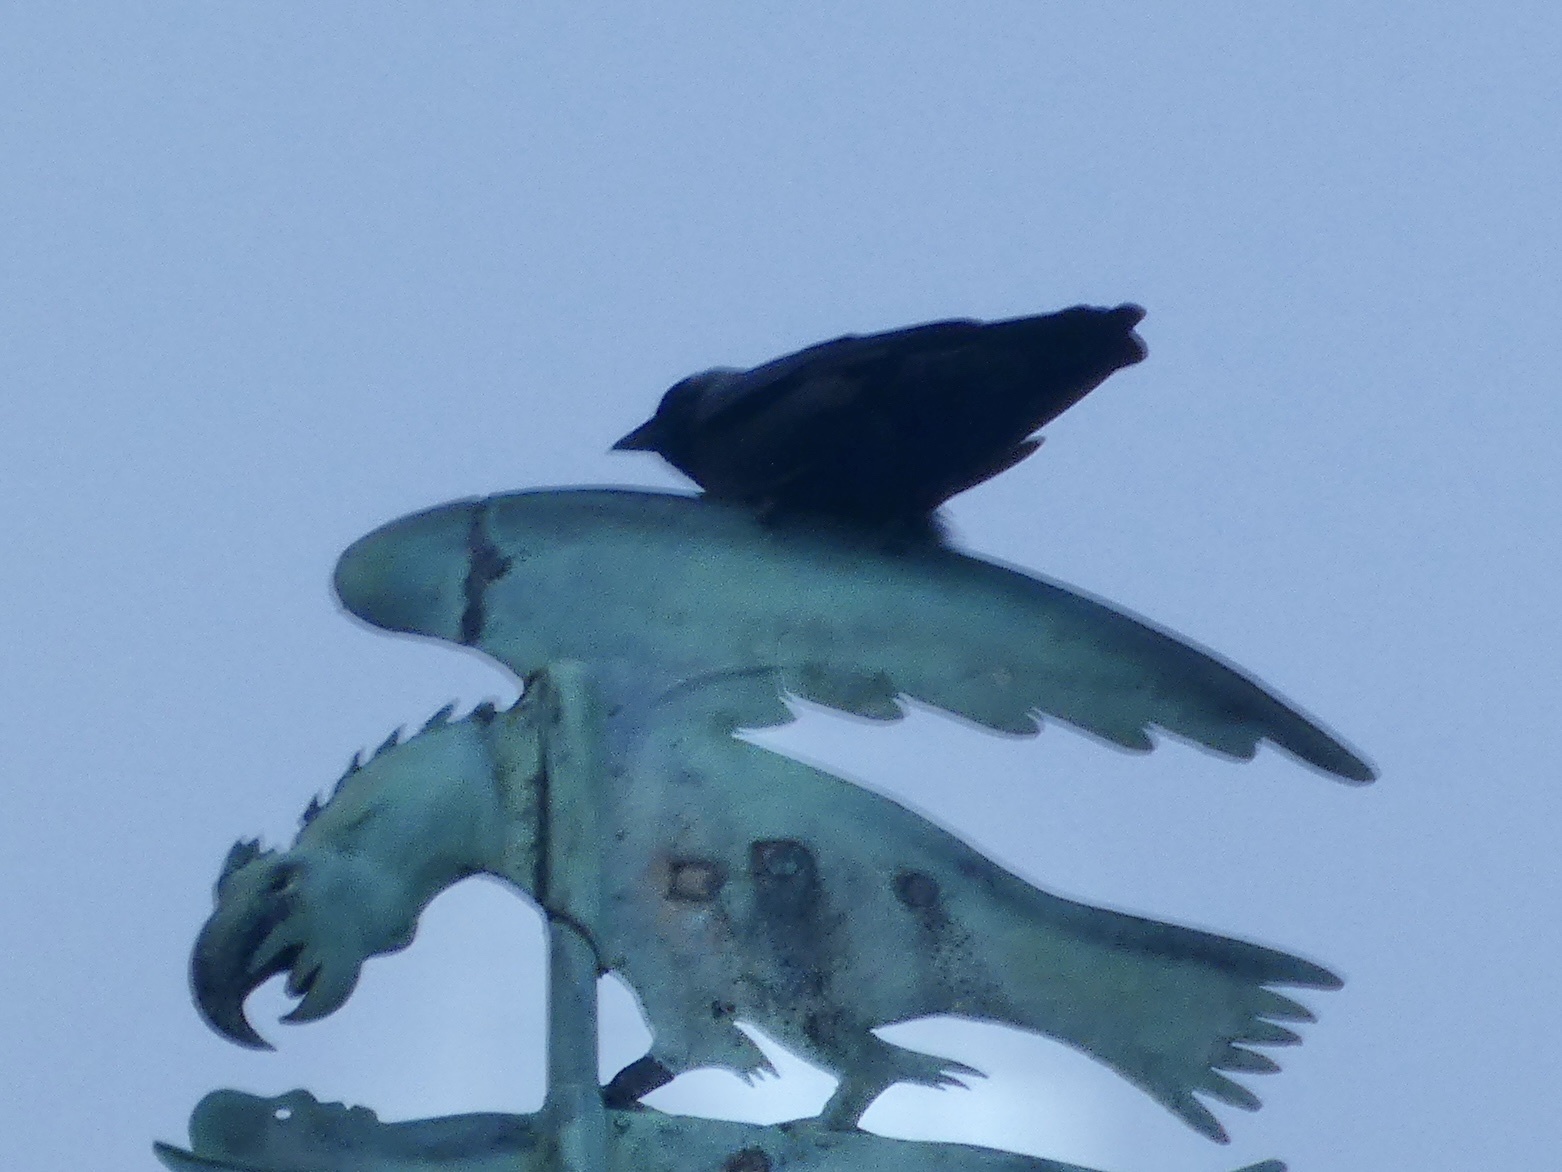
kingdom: Animalia
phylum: Chordata
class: Aves
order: Passeriformes
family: Corvidae
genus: Coloeus
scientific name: Coloeus monedula
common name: Western jackdaw
